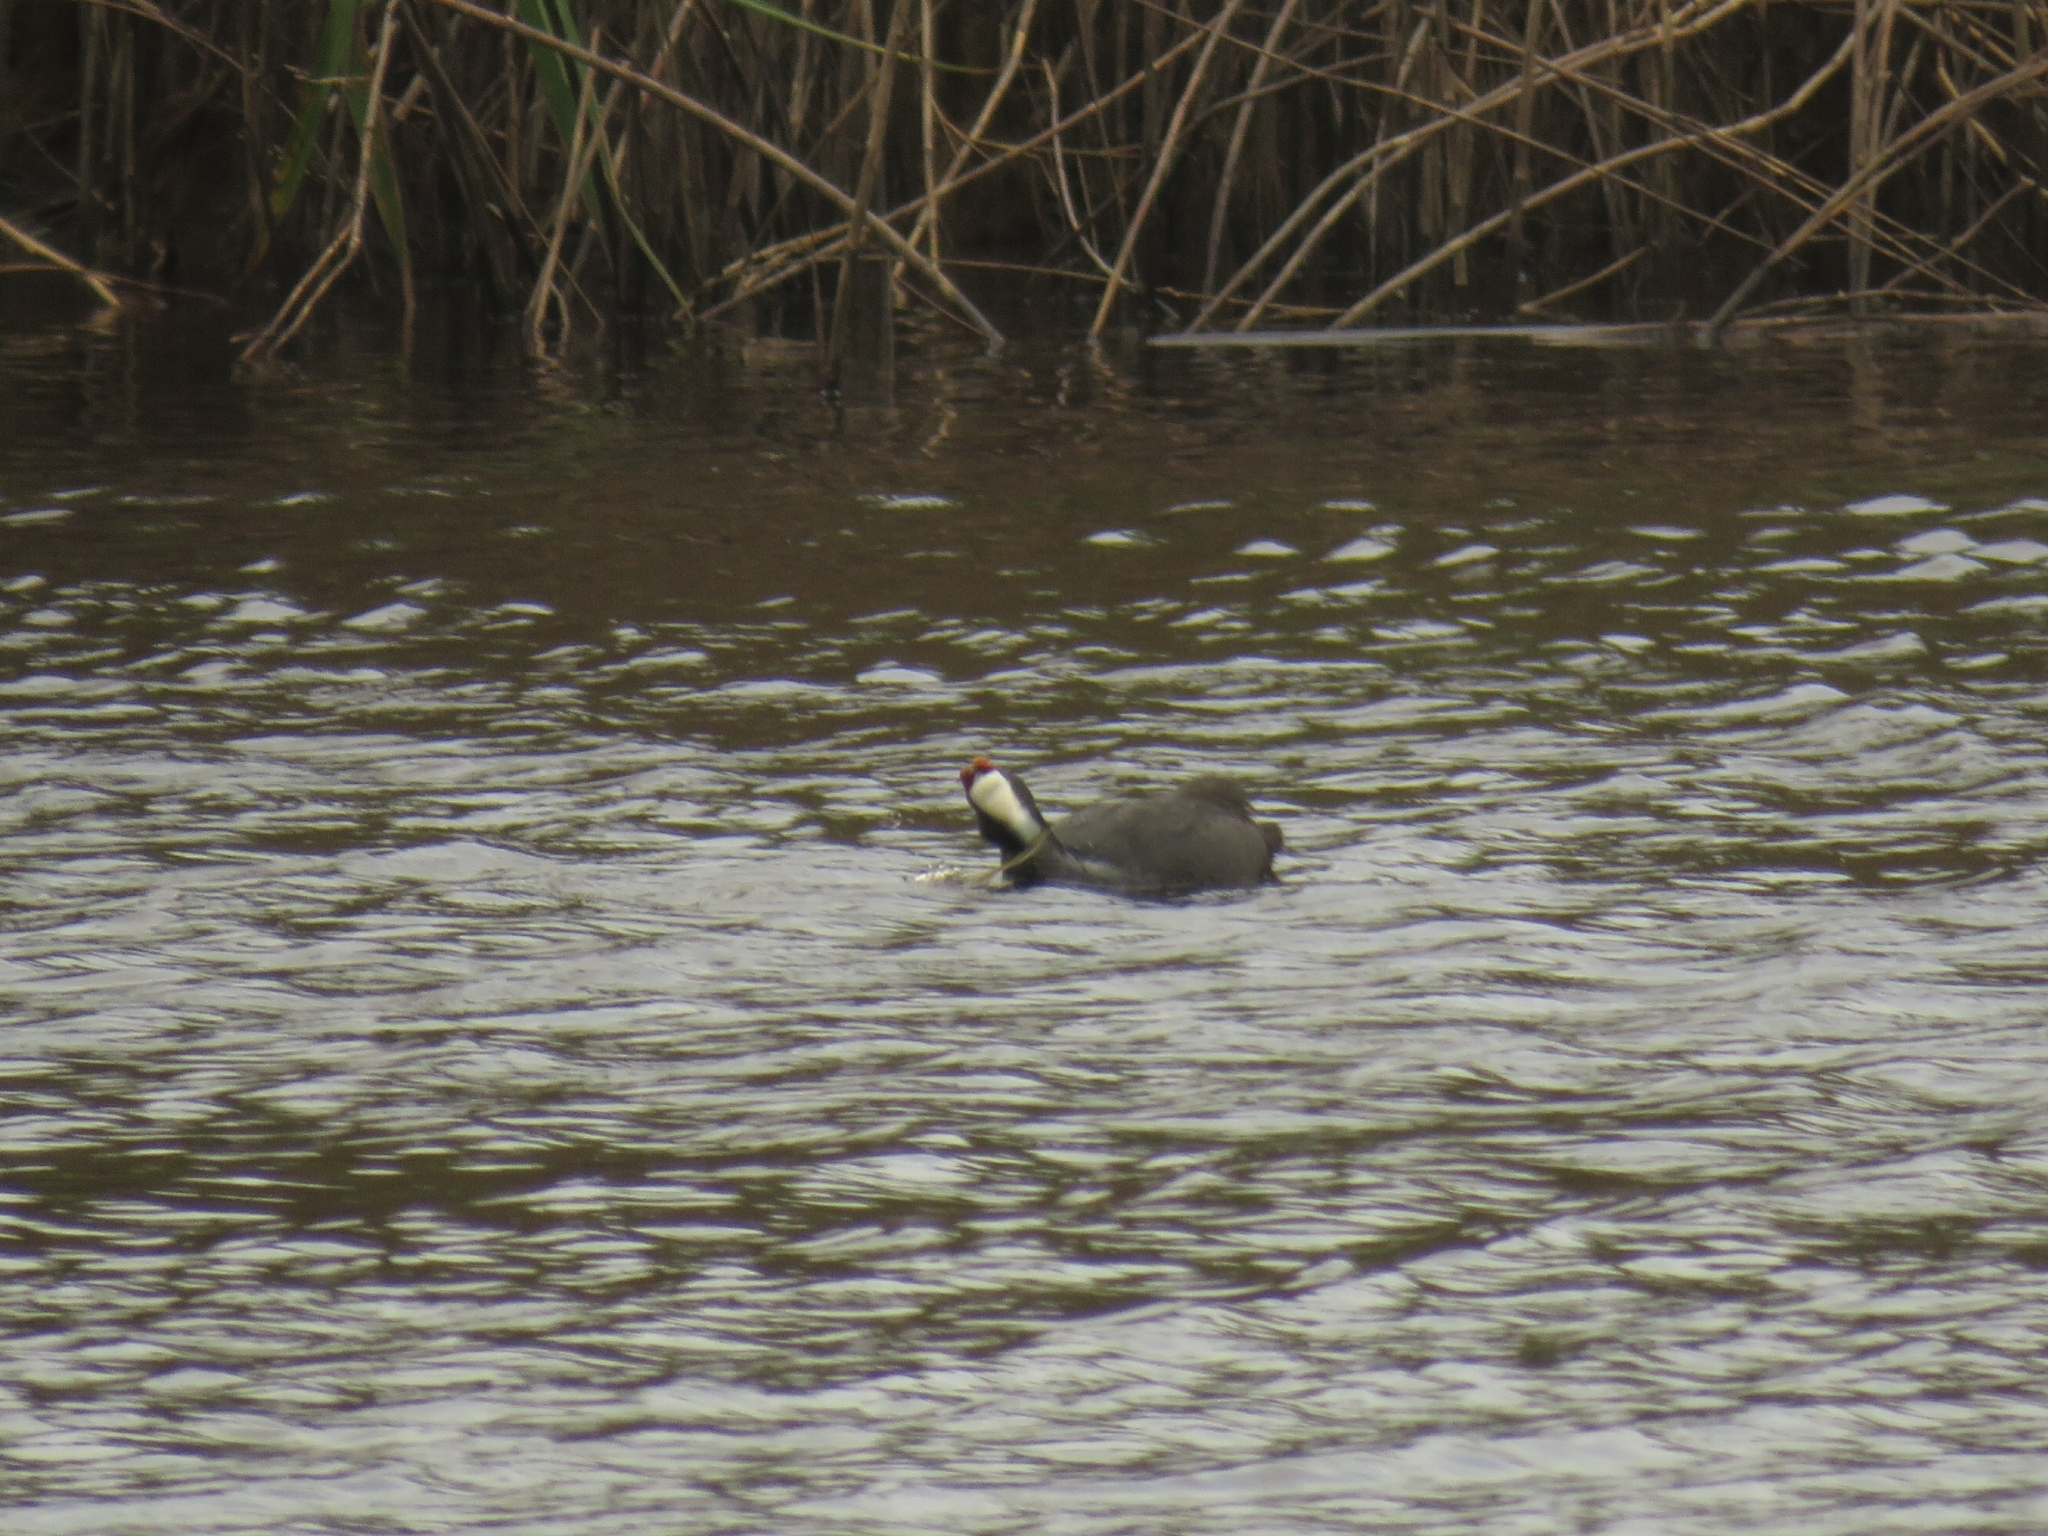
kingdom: Animalia
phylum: Chordata
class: Aves
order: Gruiformes
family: Rallidae
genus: Fulica
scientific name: Fulica cristata
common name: Red-knobbed coot
